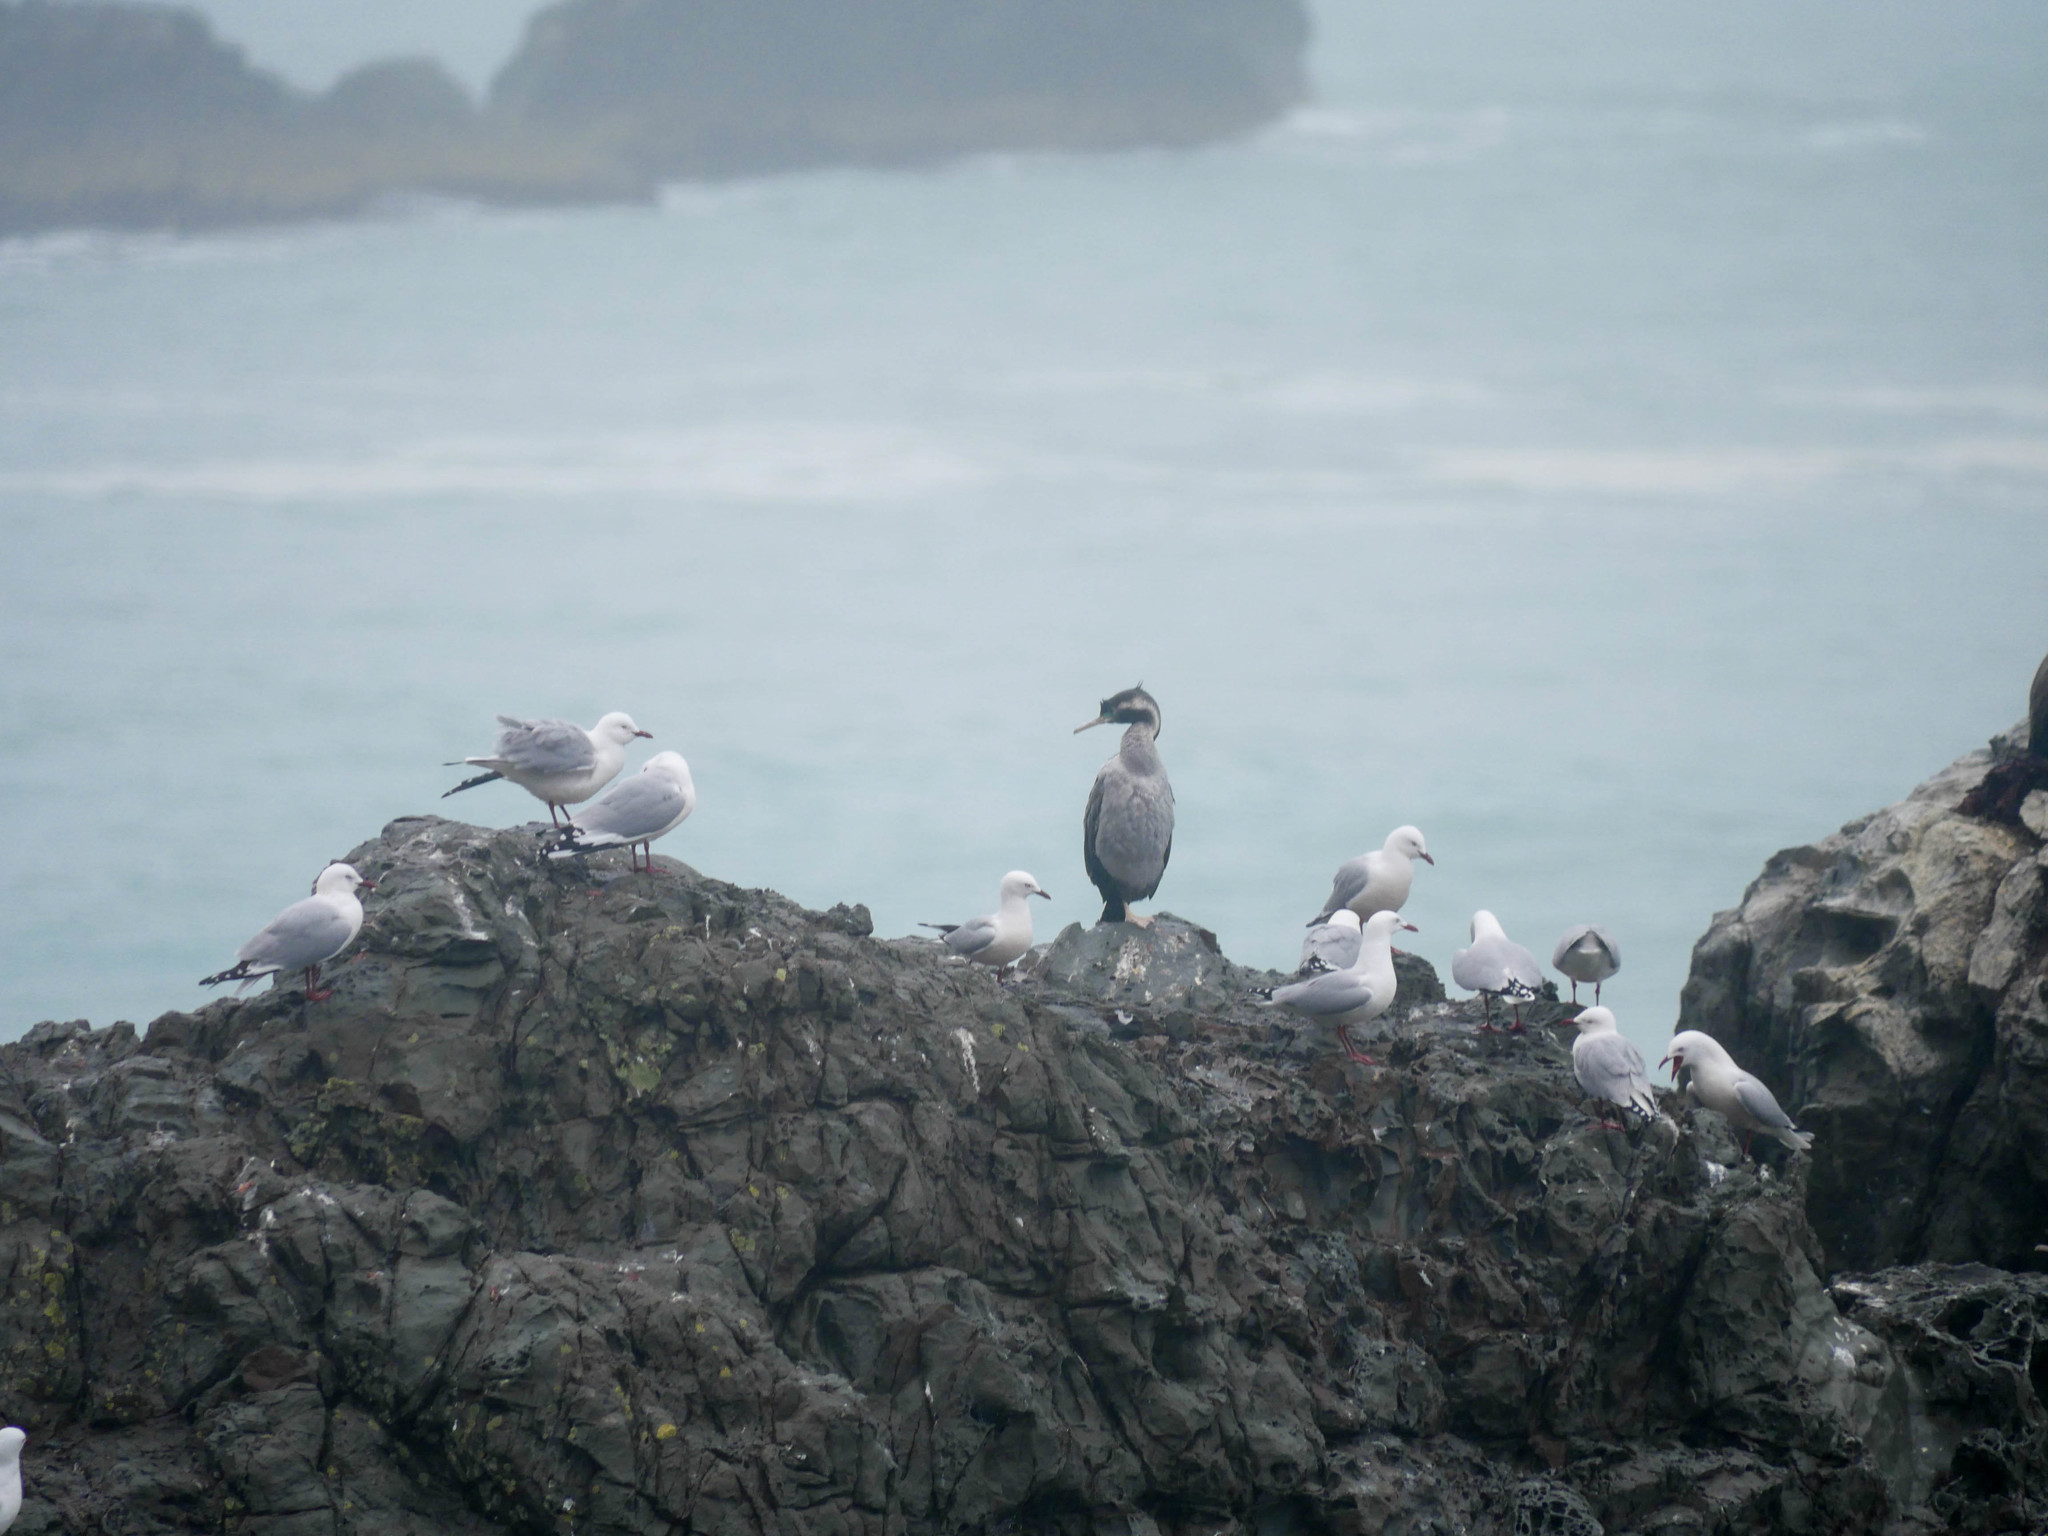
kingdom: Animalia
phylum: Chordata
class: Aves
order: Suliformes
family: Phalacrocoracidae
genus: Phalacrocorax
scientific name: Phalacrocorax punctatus
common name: Spotted shag
